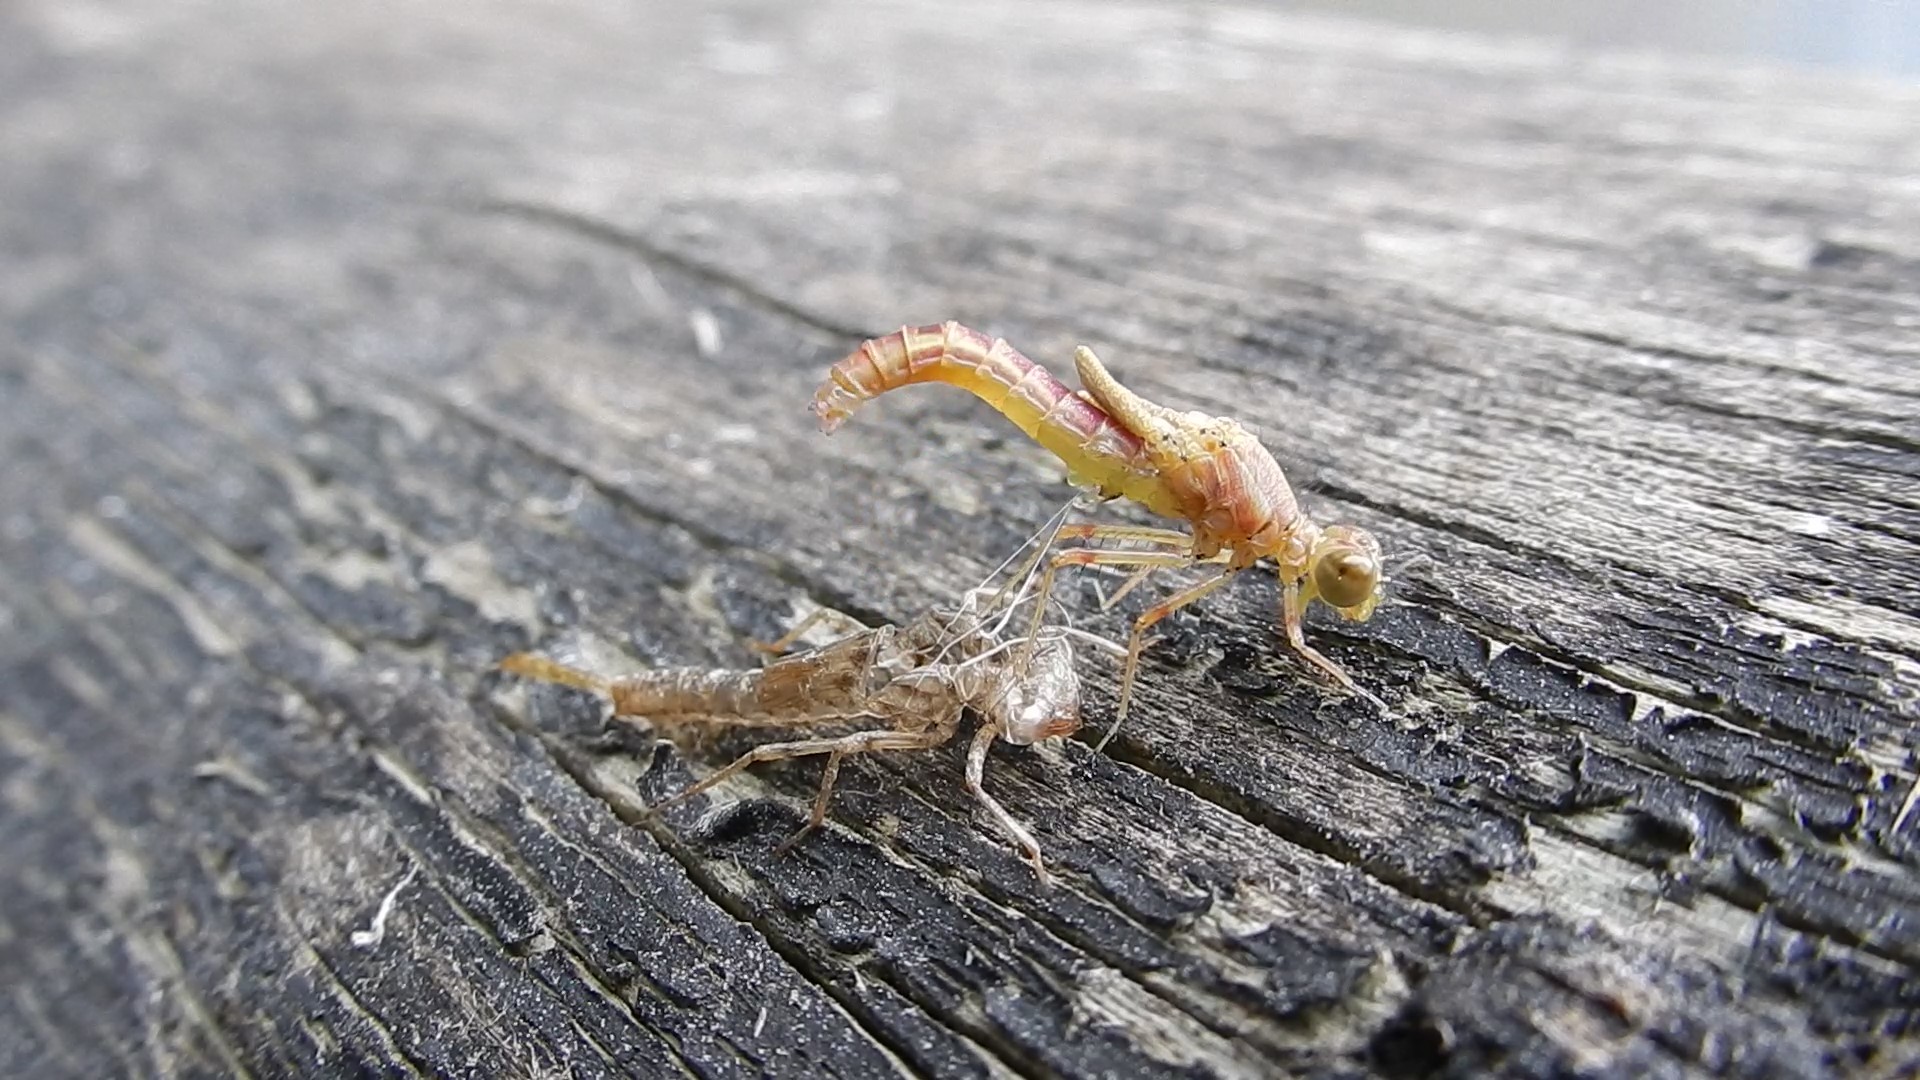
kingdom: Animalia
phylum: Arthropoda
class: Insecta
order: Odonata
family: Coenagrionidae
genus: Xanthocnemis
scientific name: Xanthocnemis zealandica
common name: Common redcoat damselfly
